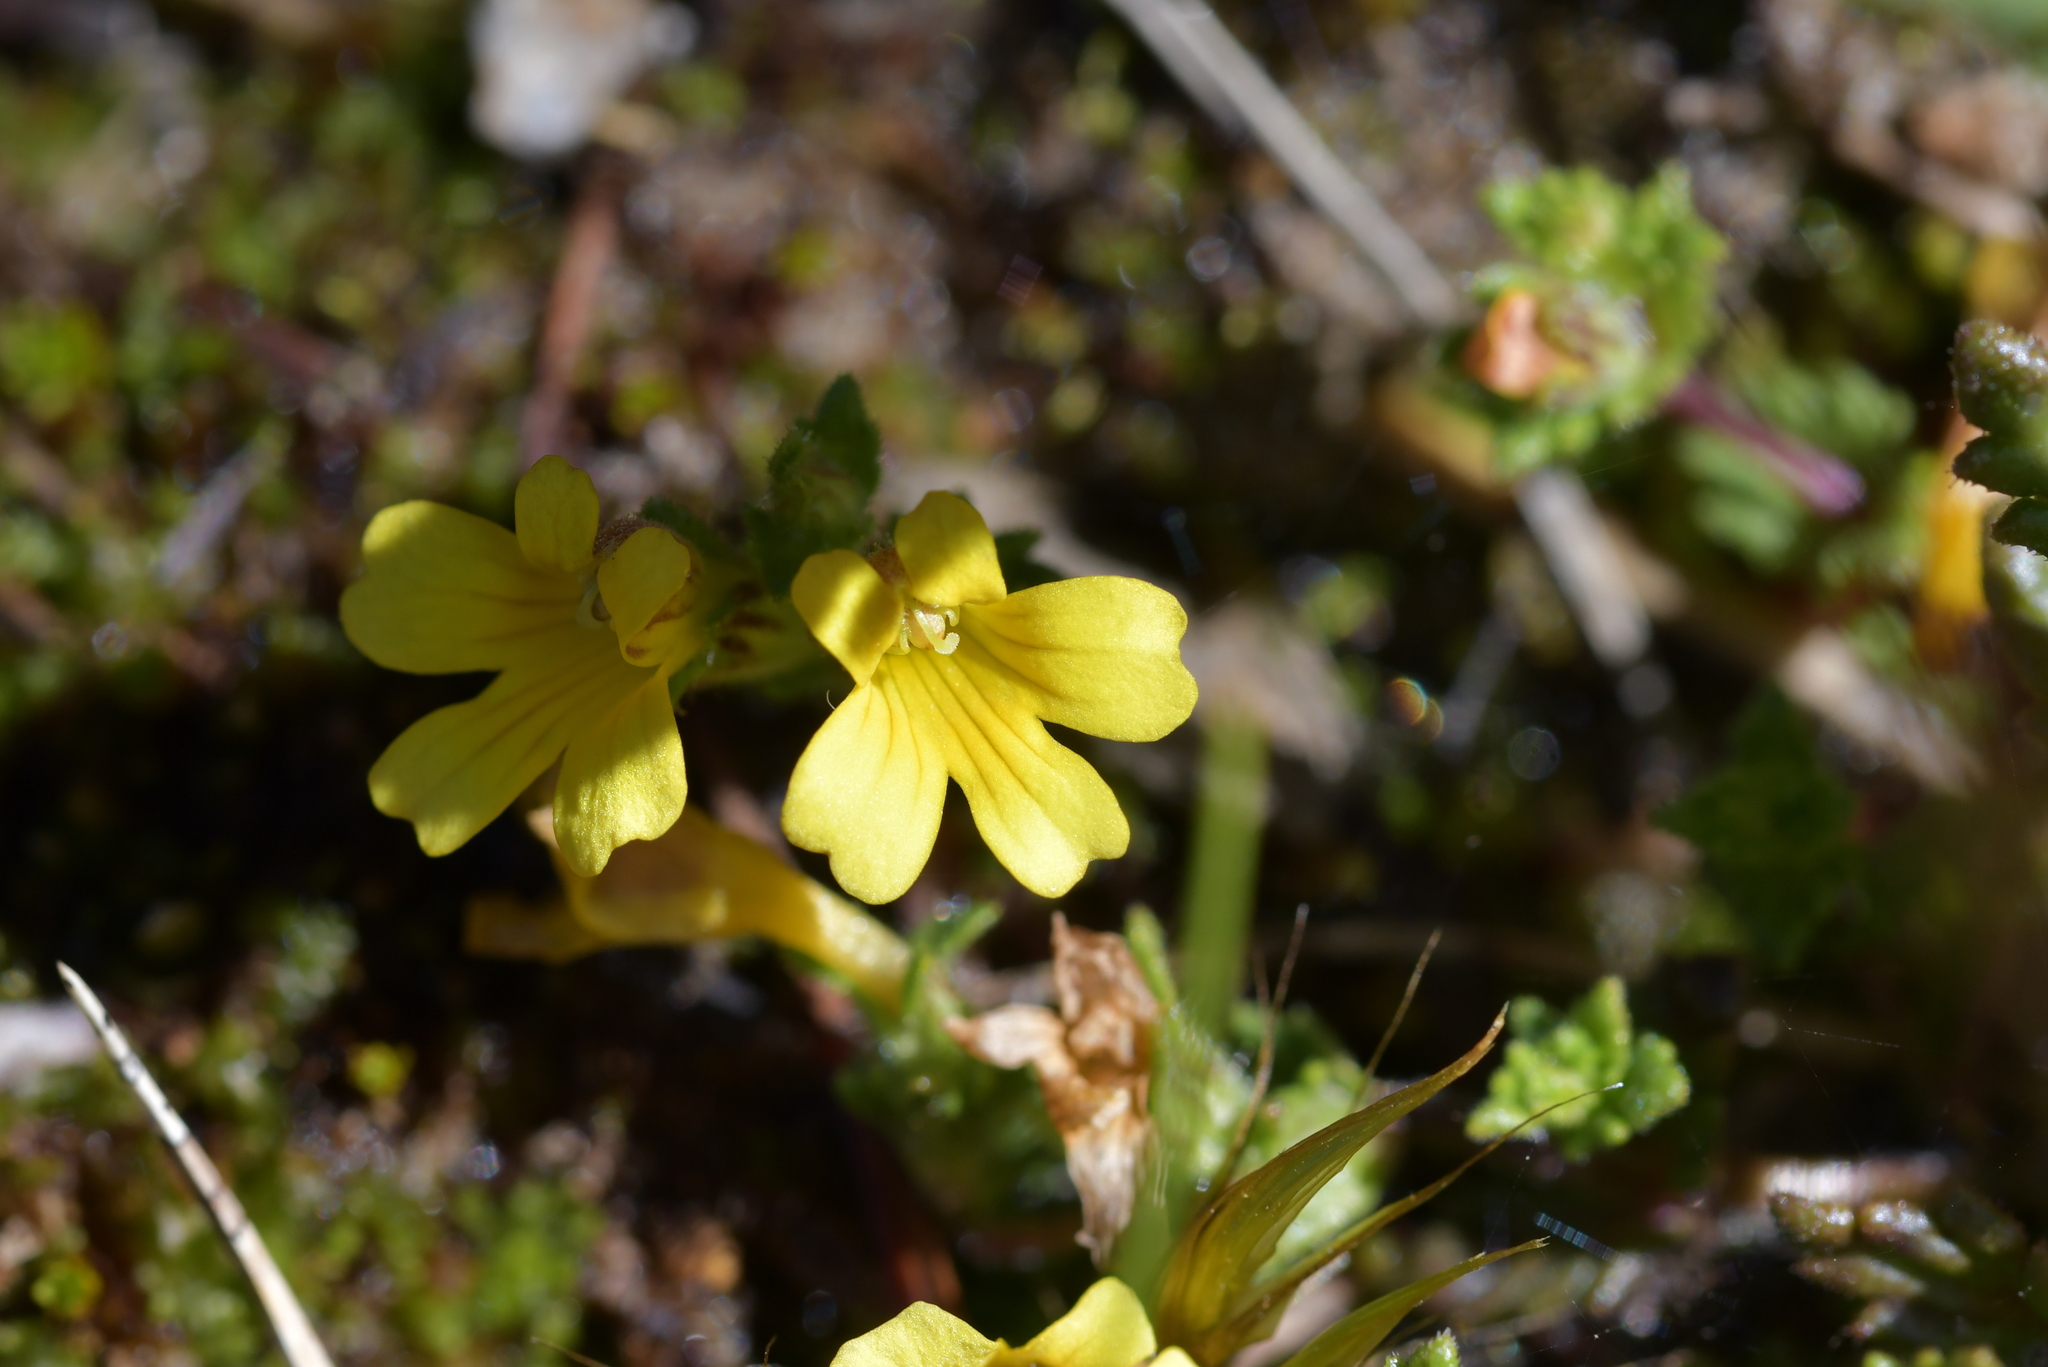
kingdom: Plantae
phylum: Tracheophyta
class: Magnoliopsida
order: Lamiales
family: Orobanchaceae
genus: Euphrasia
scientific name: Euphrasia cockayneana
